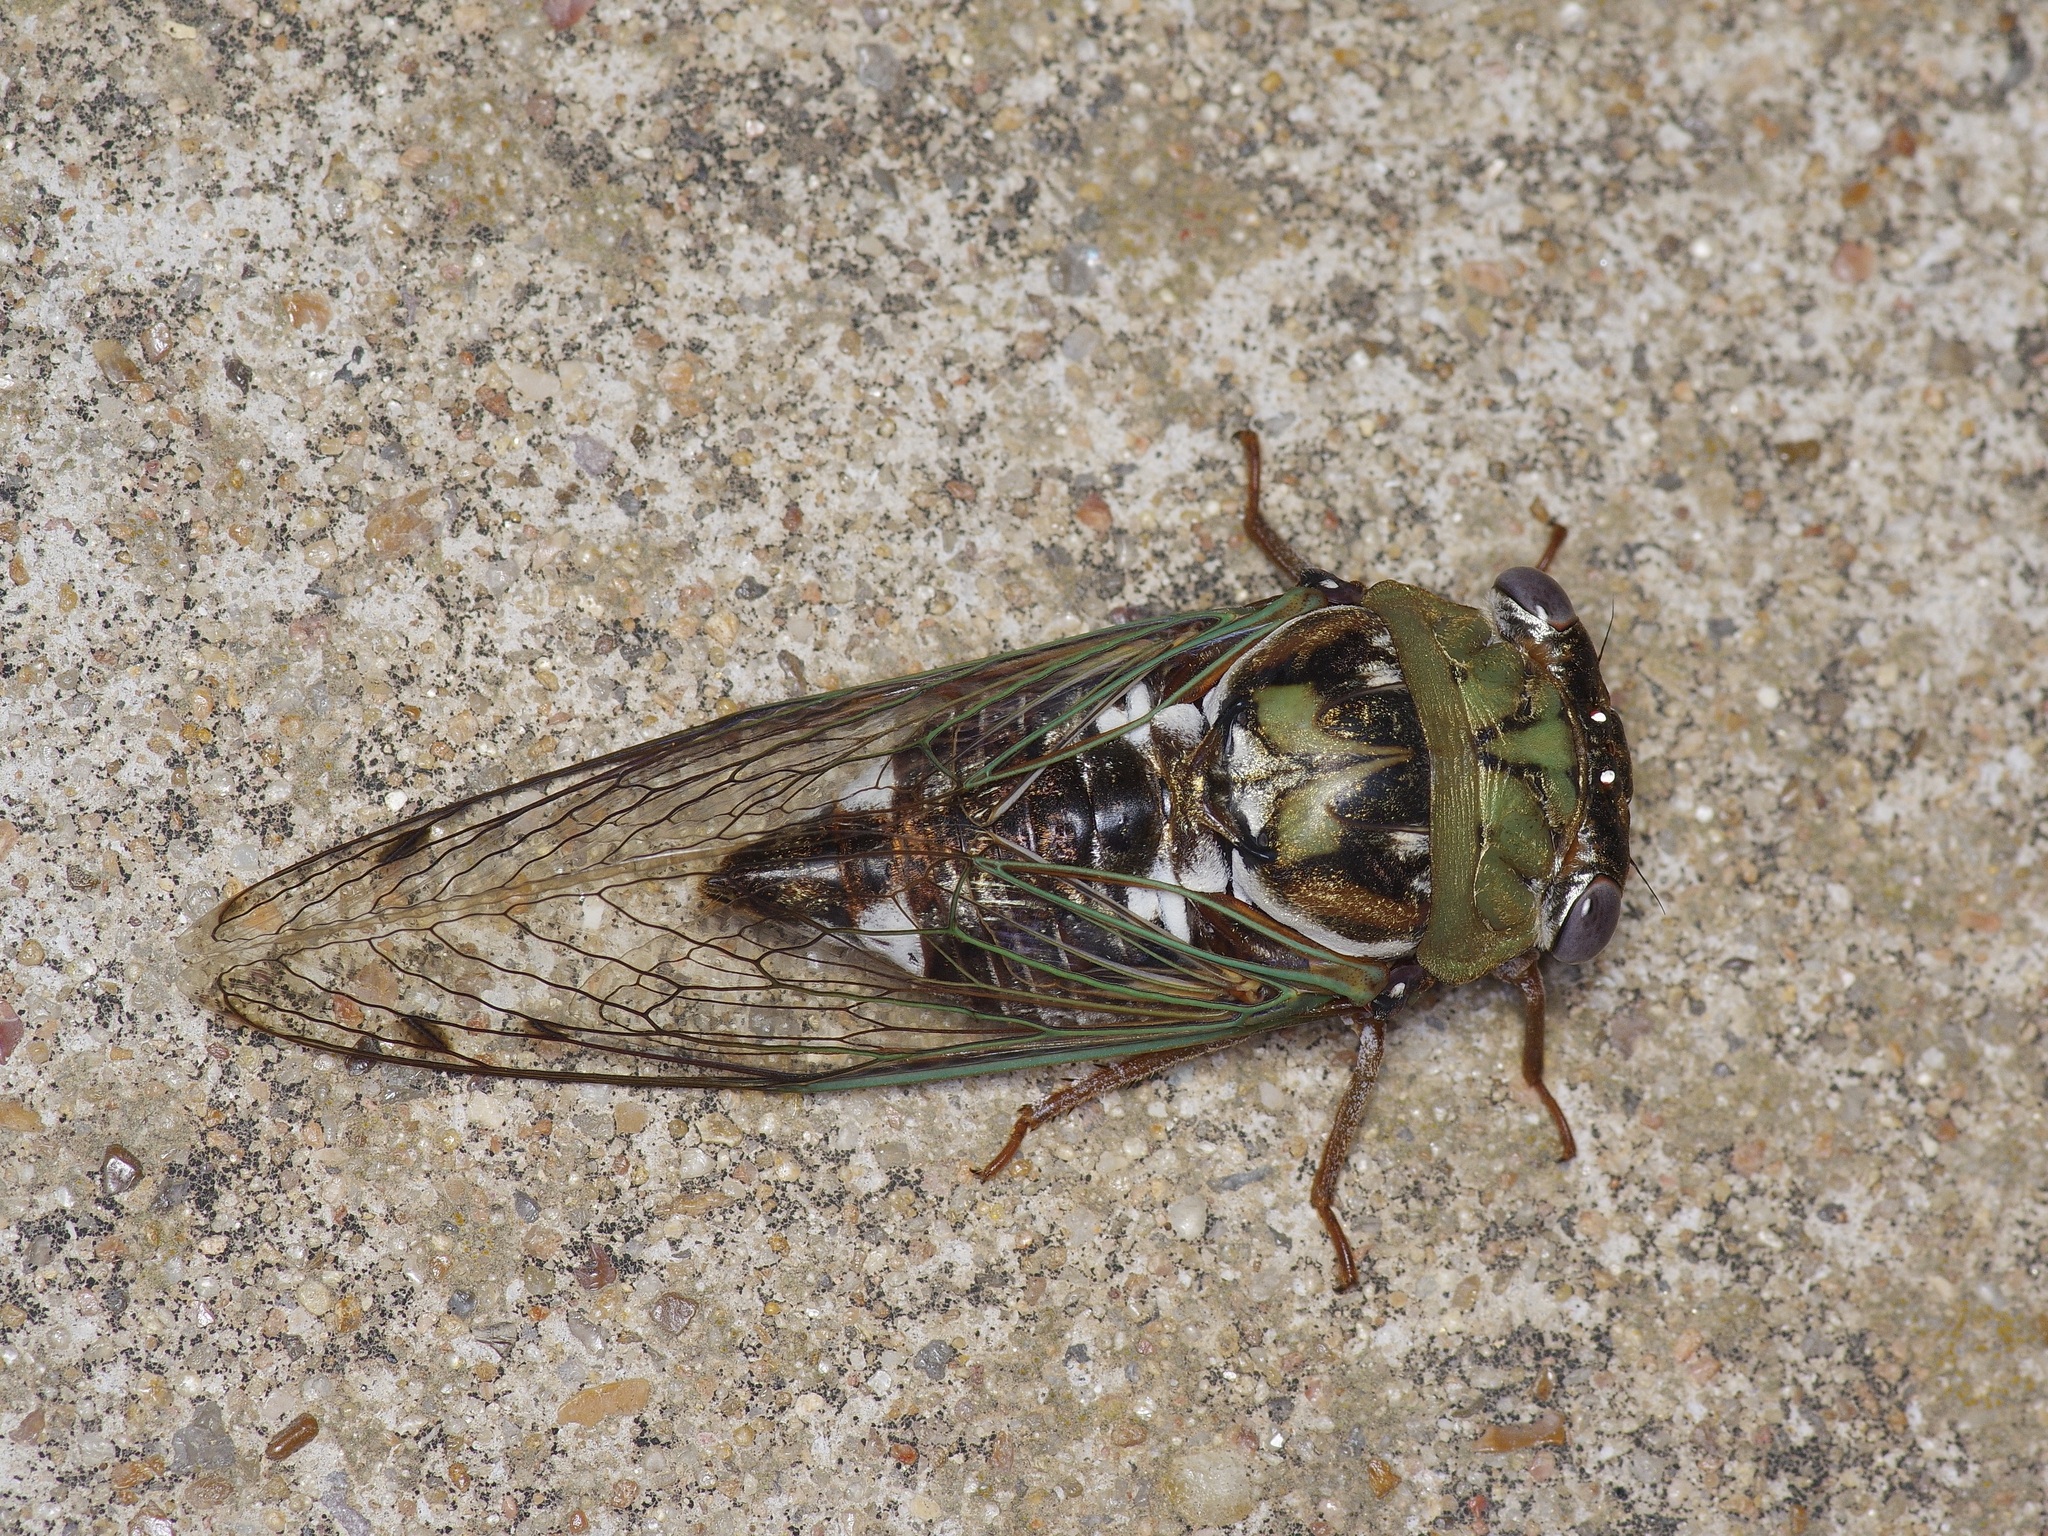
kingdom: Animalia
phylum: Arthropoda
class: Insecta
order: Hemiptera
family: Cicadidae
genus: Megatibicen
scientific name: Megatibicen resh
